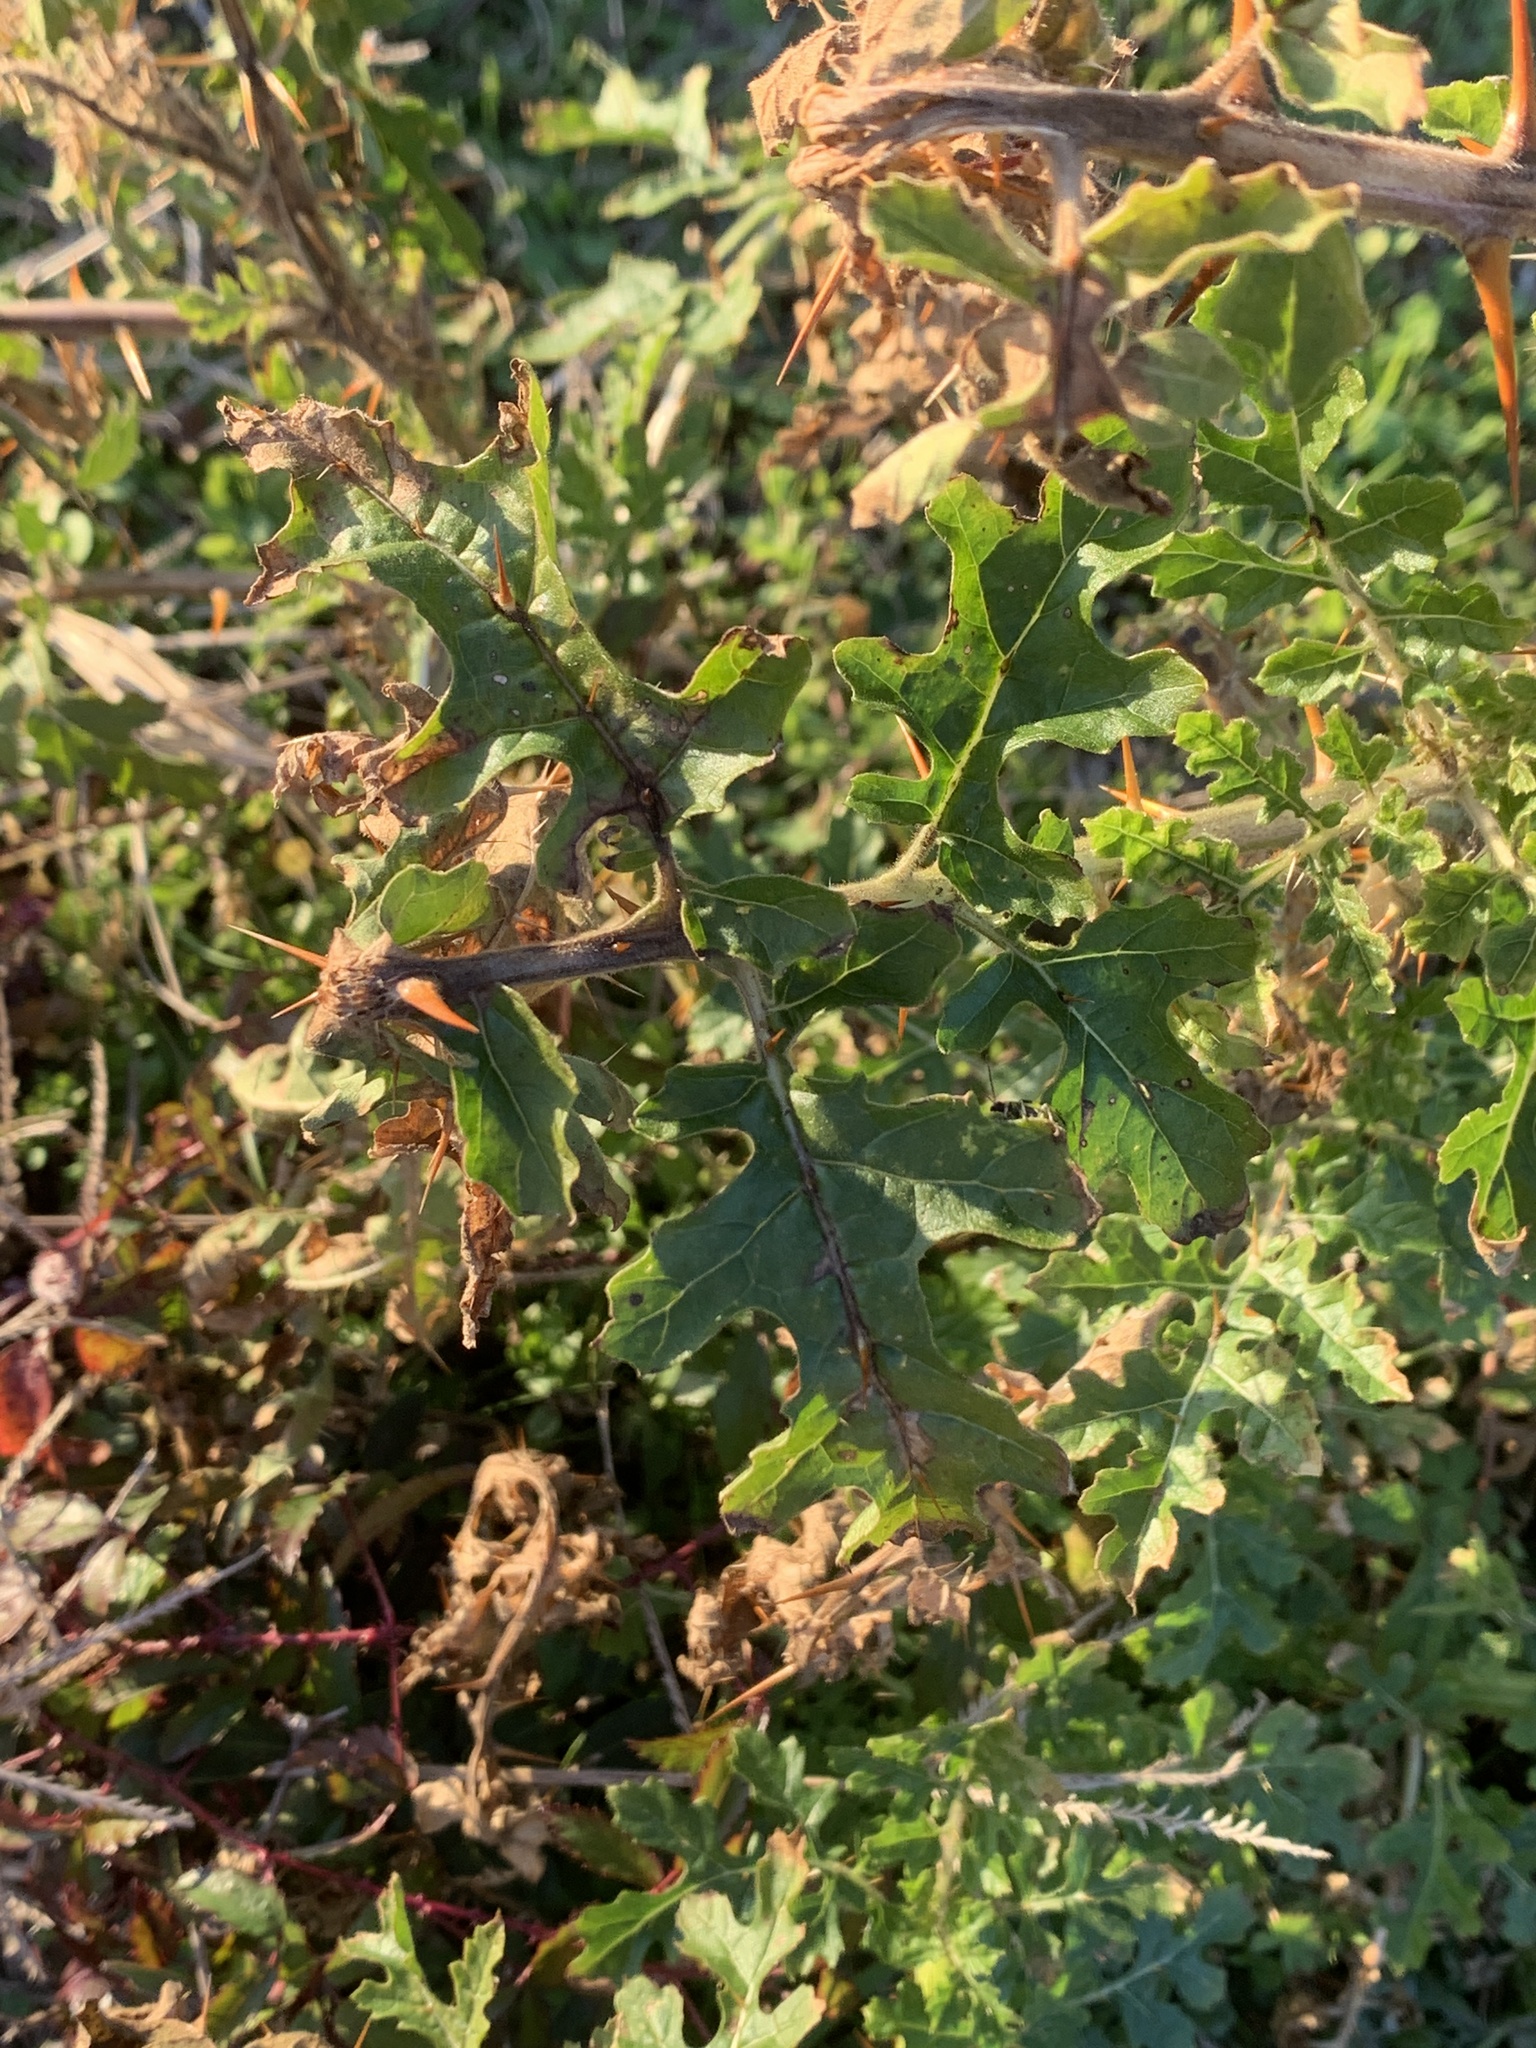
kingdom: Plantae
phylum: Tracheophyta
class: Magnoliopsida
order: Solanales
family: Solanaceae
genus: Solanum
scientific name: Solanum sisymbriifolium
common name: Red buffalo-bur
